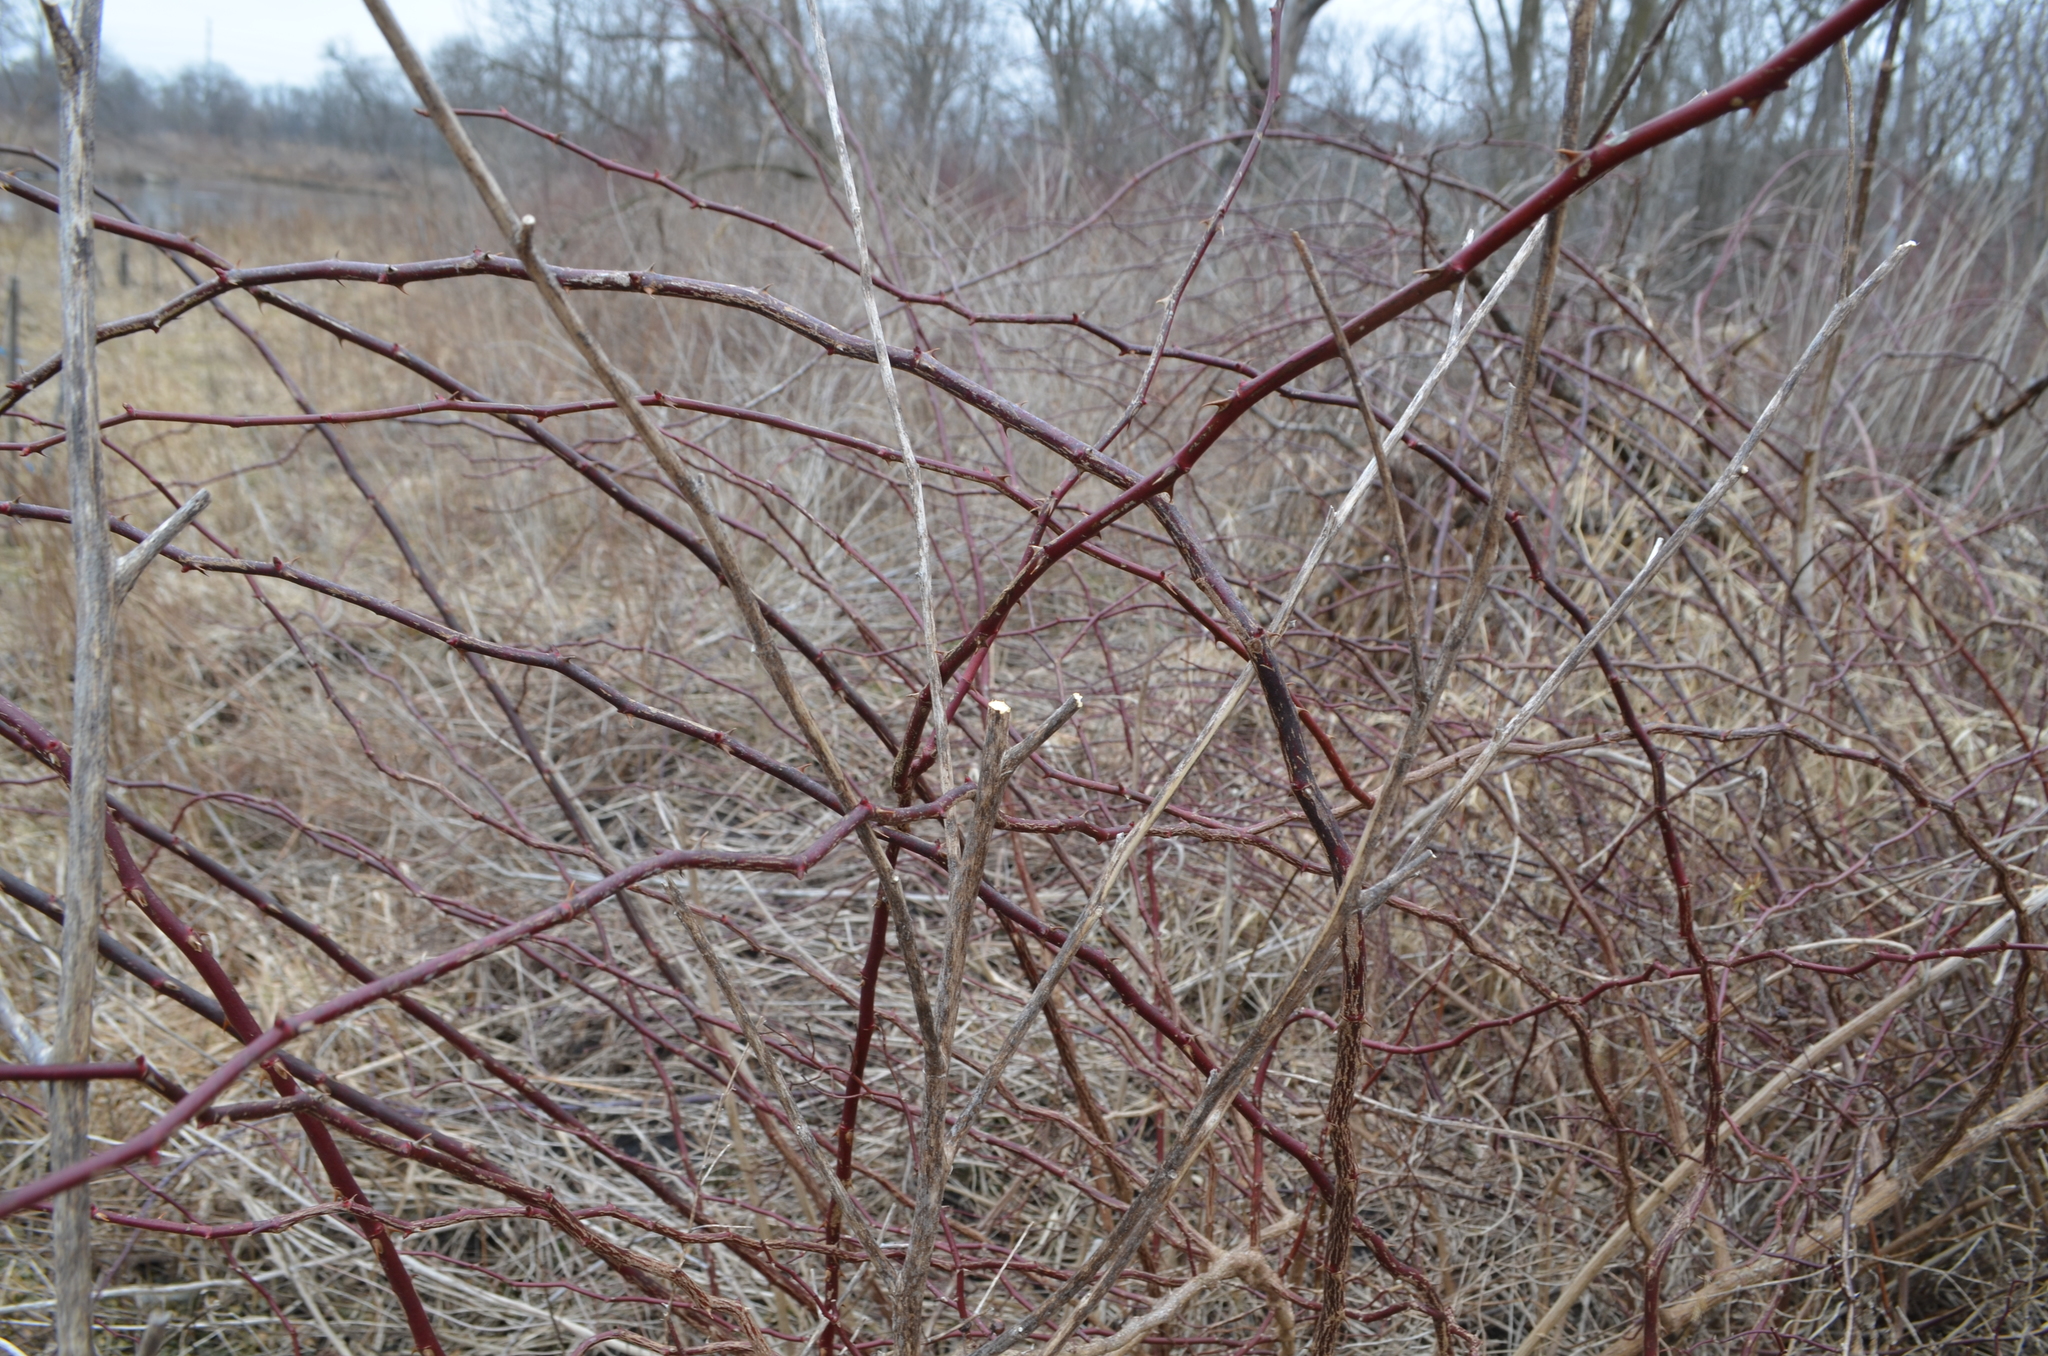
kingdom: Plantae
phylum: Tracheophyta
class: Magnoliopsida
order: Rosales
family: Rosaceae
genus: Rosa
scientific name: Rosa multiflora
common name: Multiflora rose
